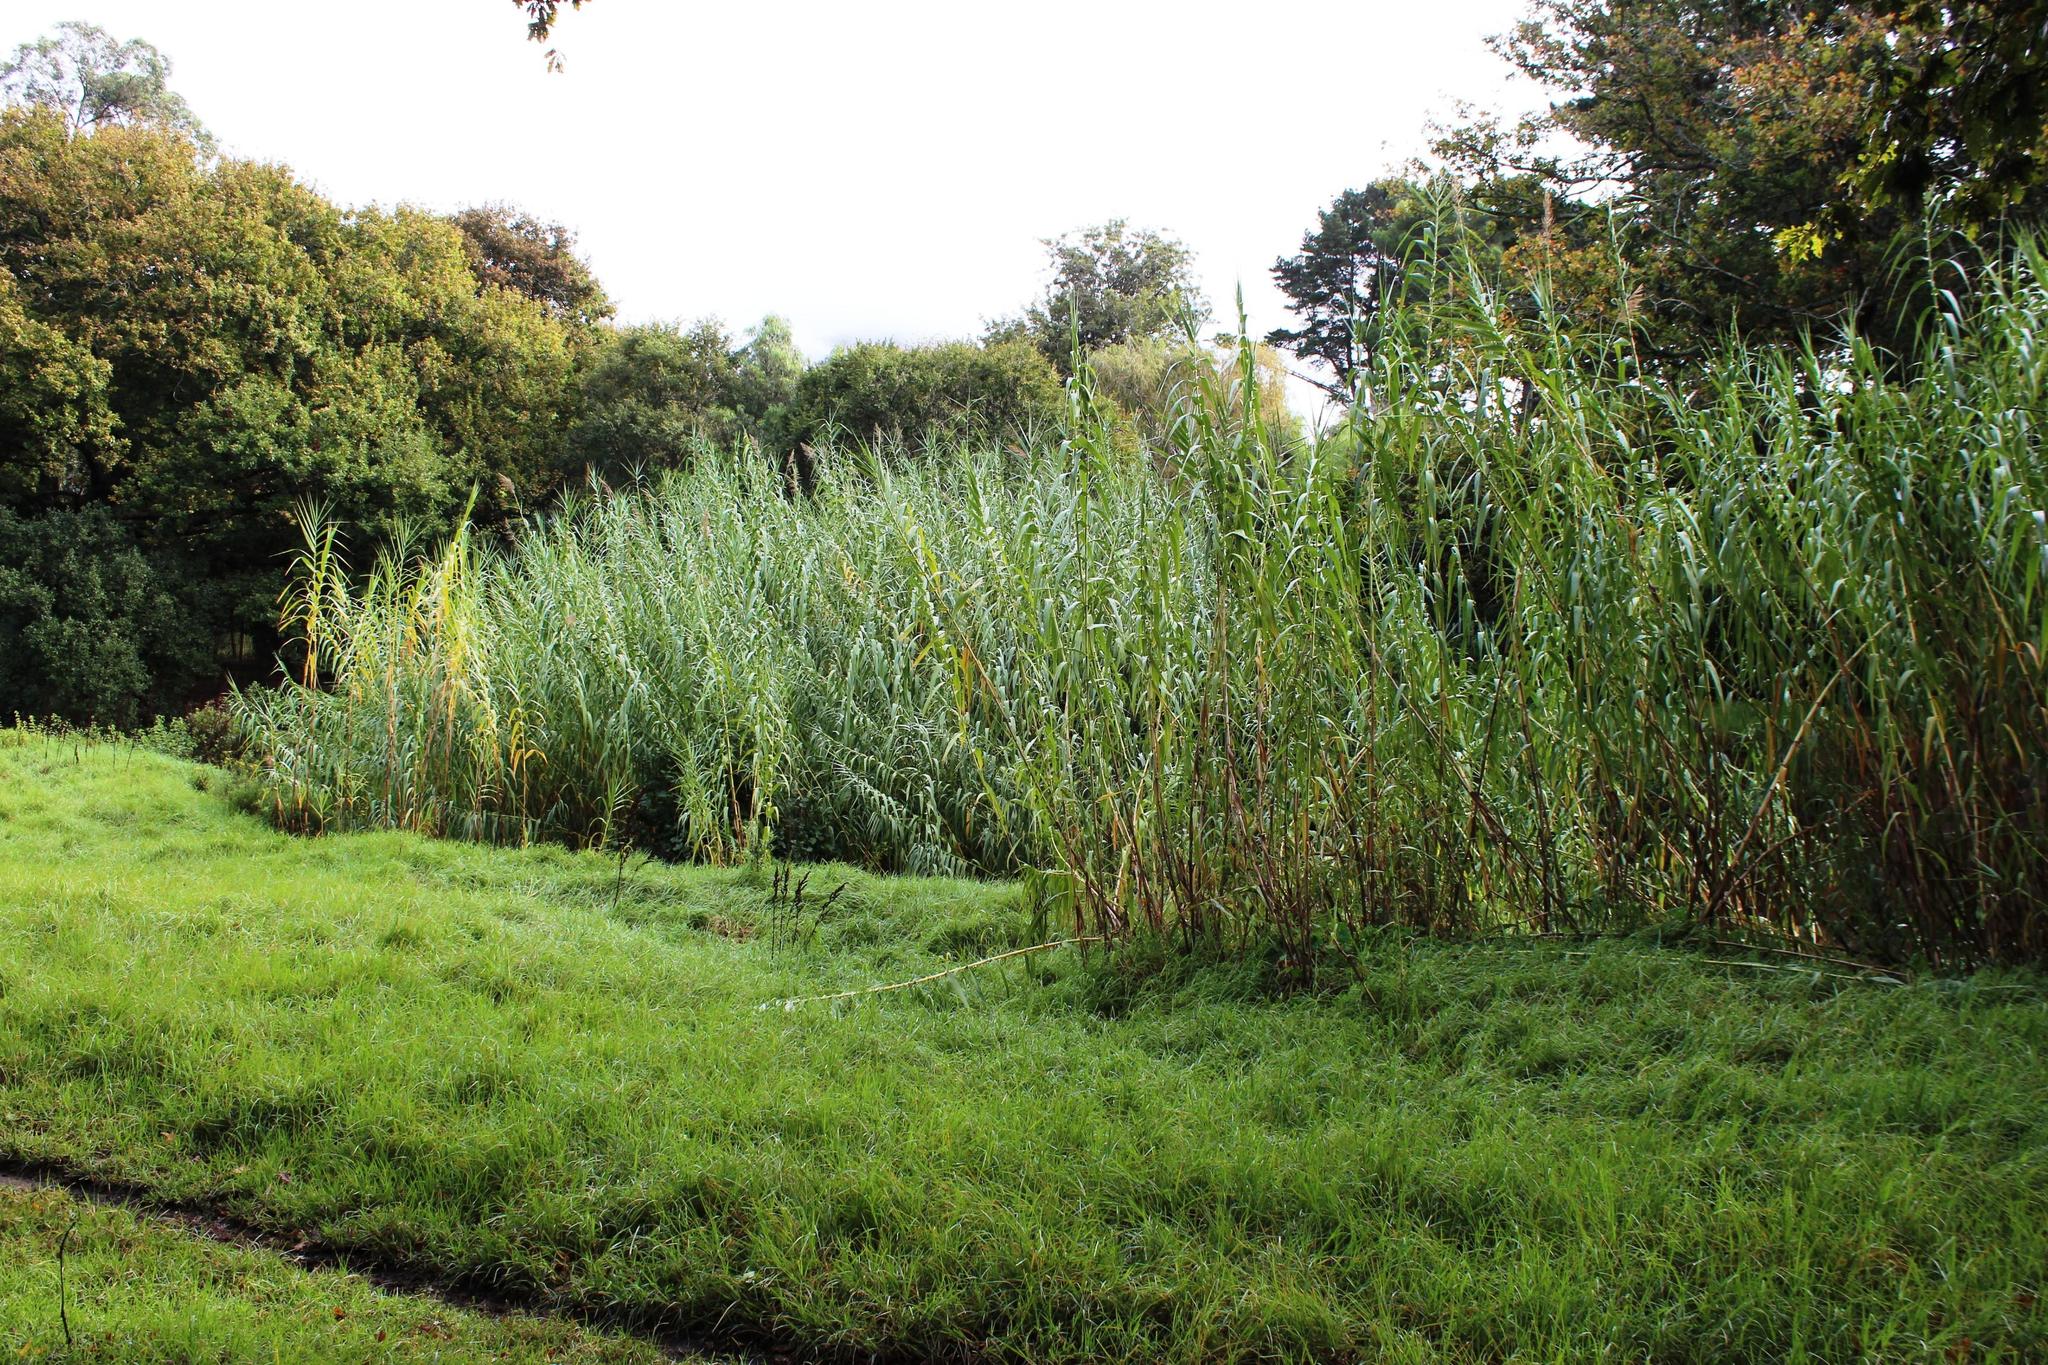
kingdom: Plantae
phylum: Tracheophyta
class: Liliopsida
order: Poales
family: Poaceae
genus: Arundo
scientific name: Arundo donax
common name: Giant reed
